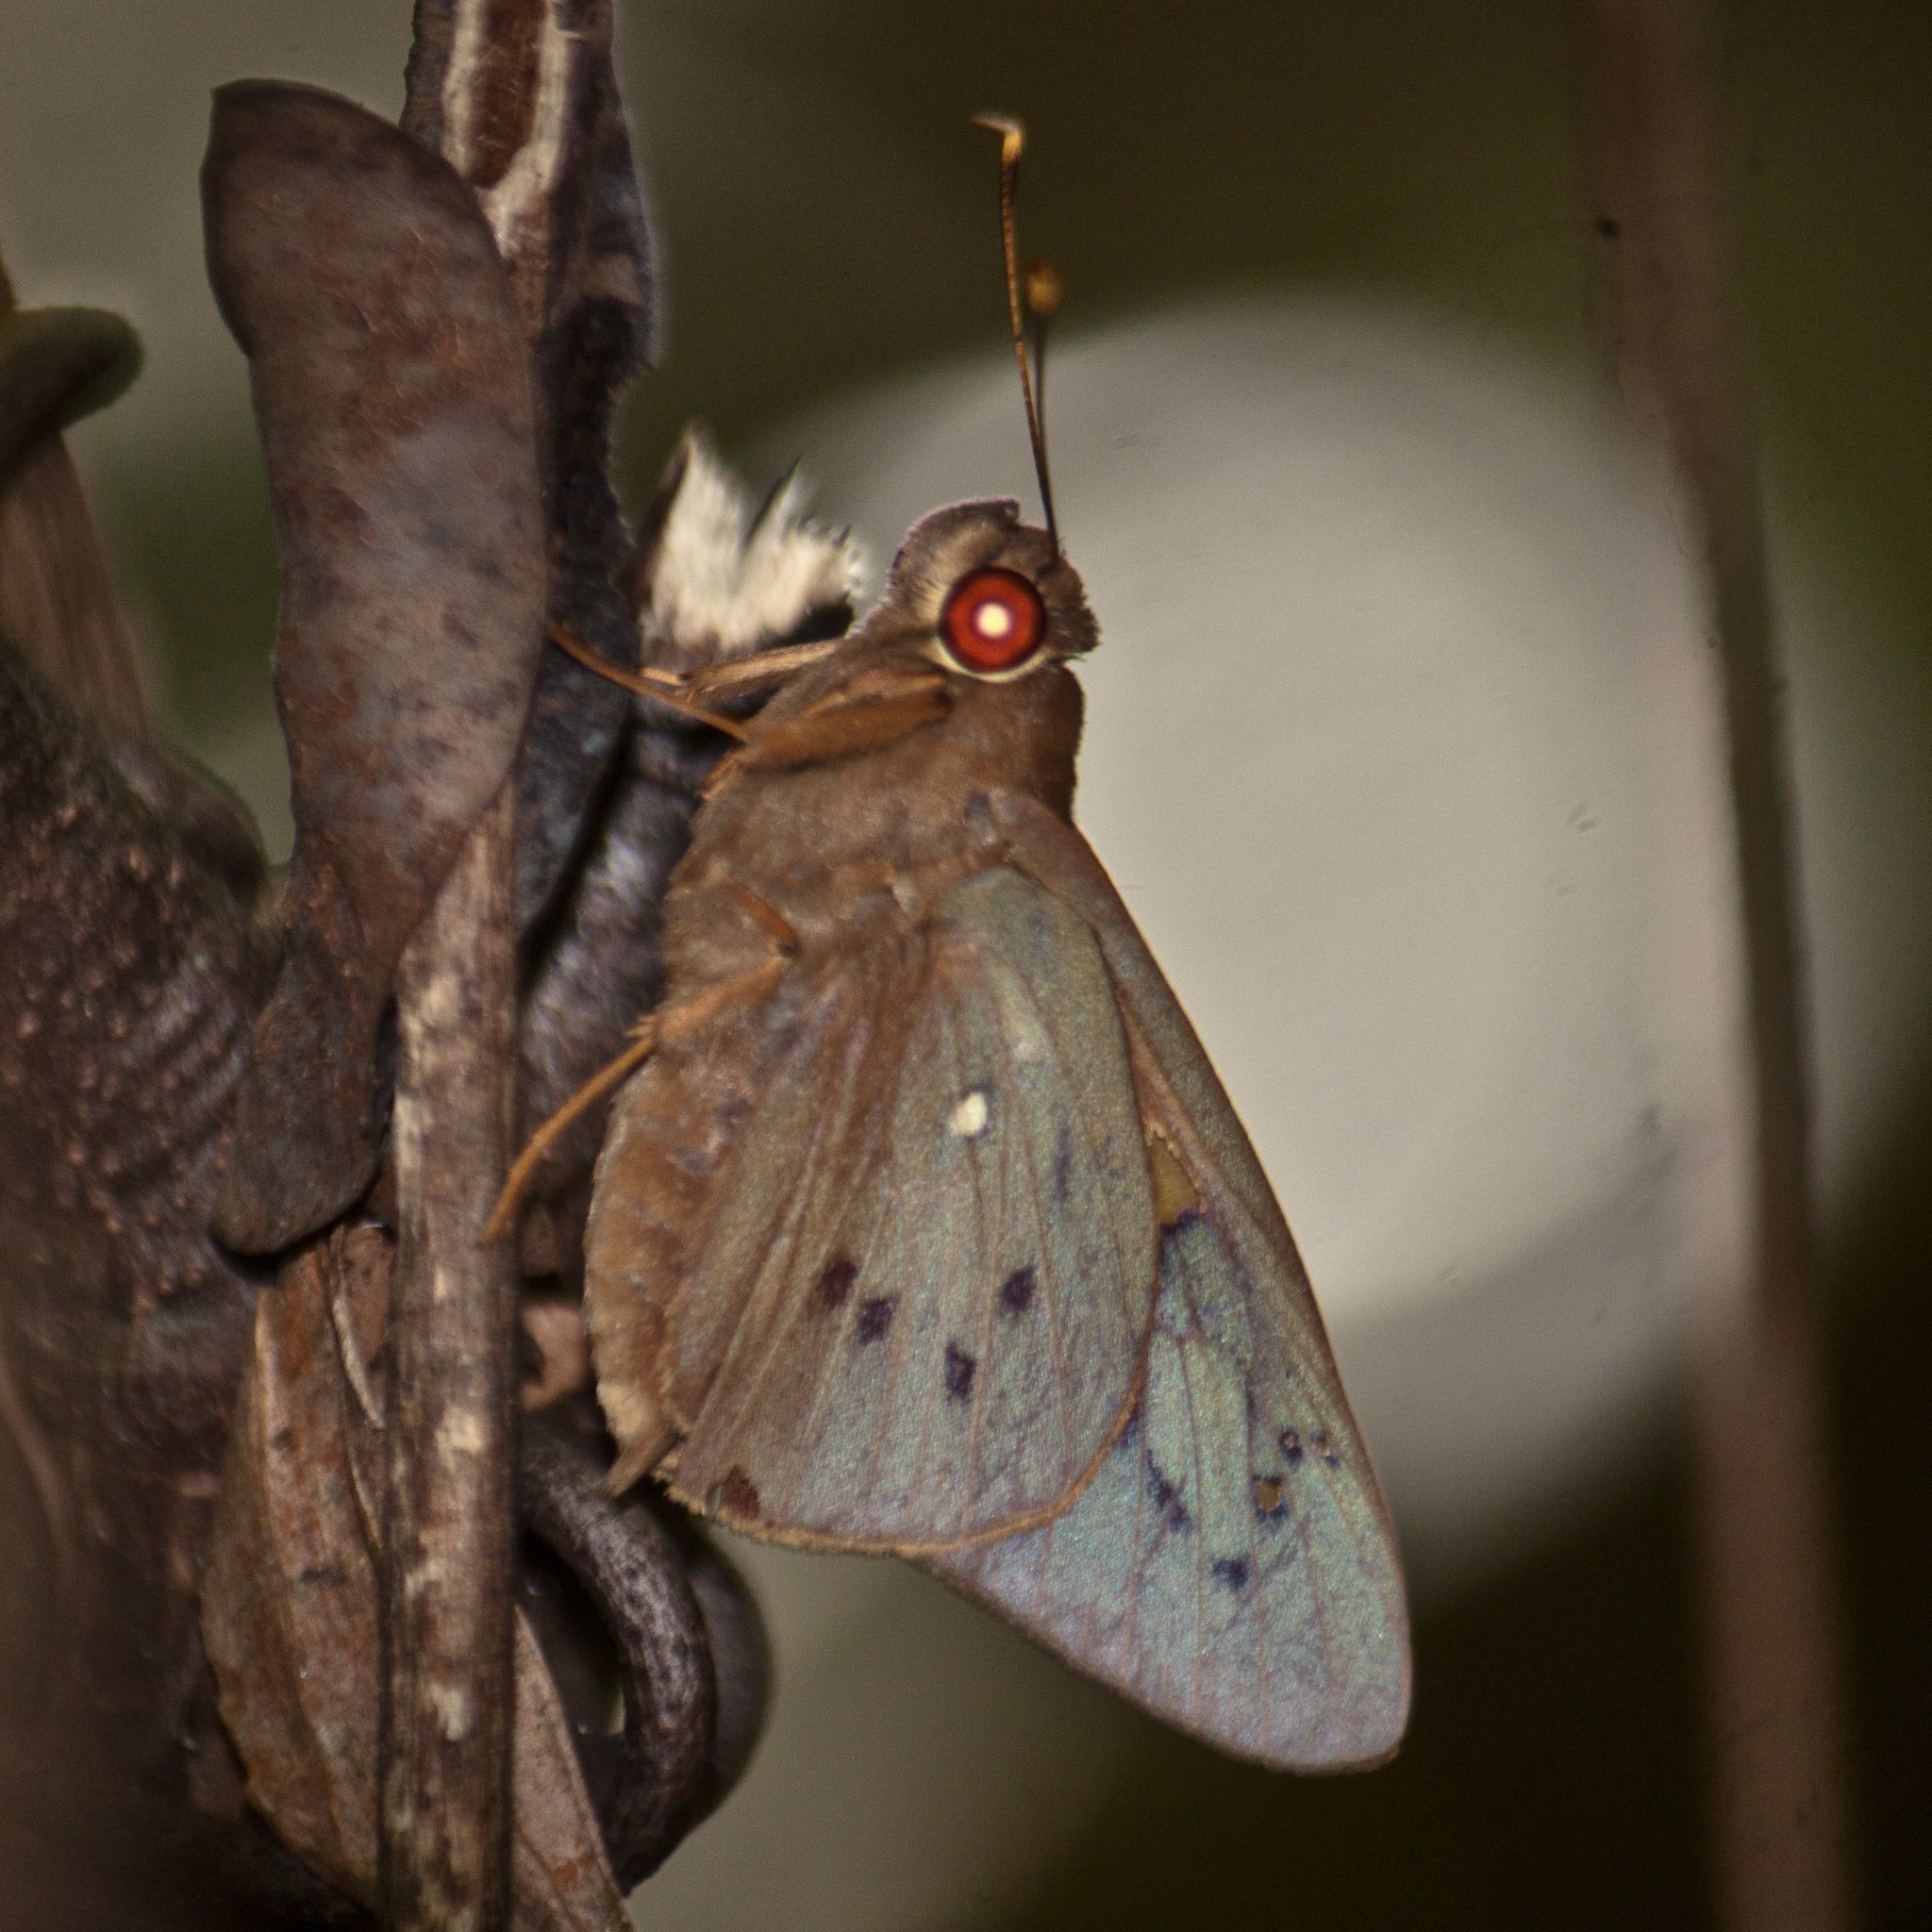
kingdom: Animalia
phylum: Arthropoda
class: Insecta
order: Lepidoptera
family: Hesperiidae
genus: Hidari
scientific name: Hidari irava
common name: Coconut skipper
